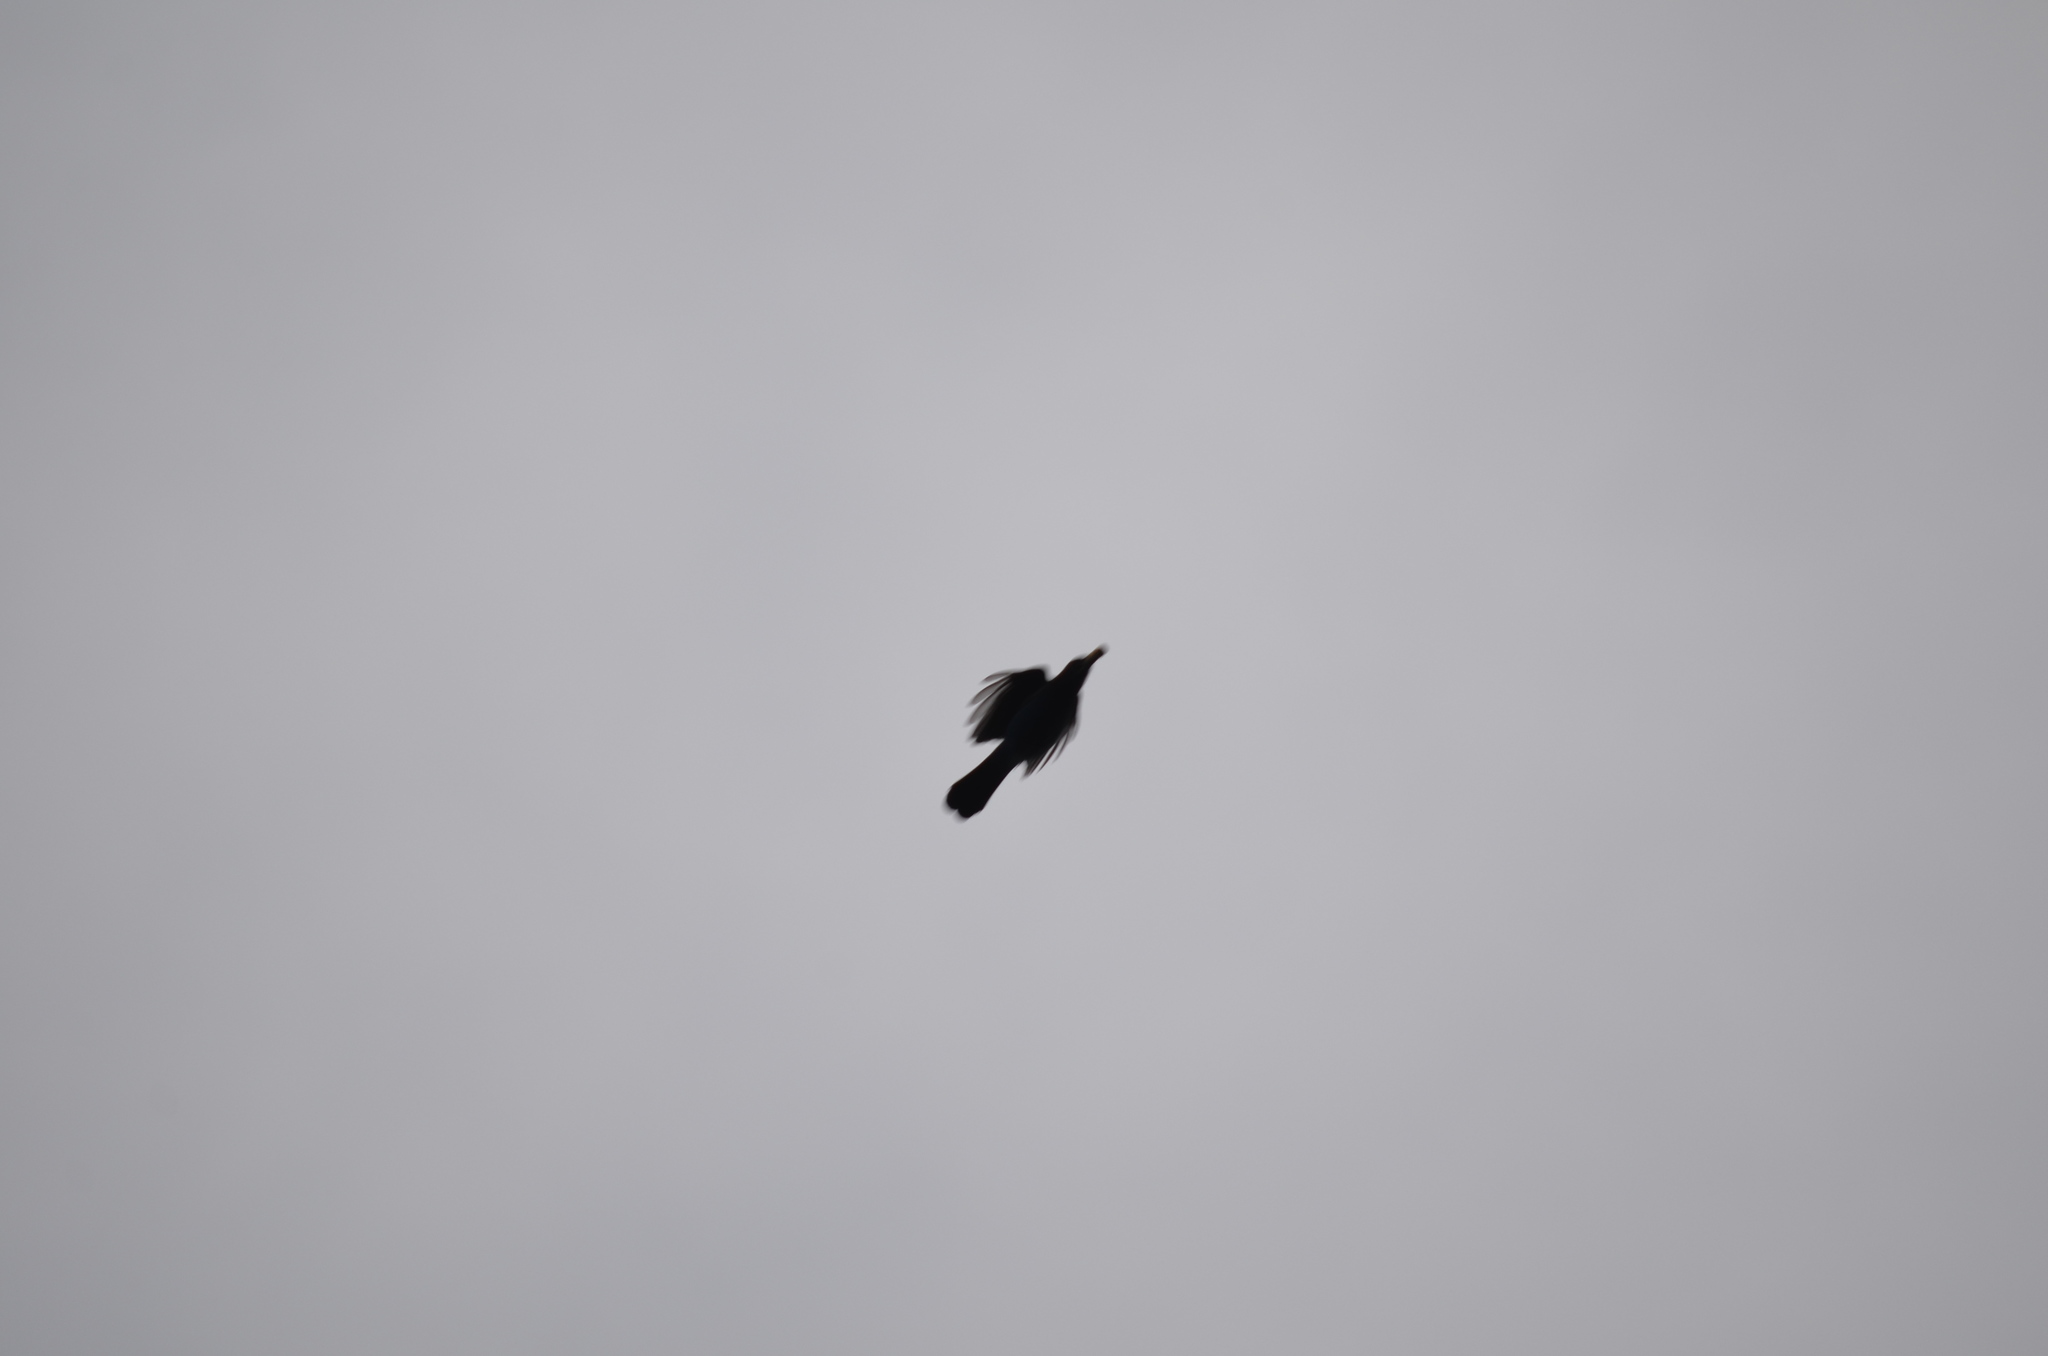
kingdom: Animalia
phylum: Chordata
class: Aves
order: Passeriformes
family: Corvidae
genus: Cyanocitta
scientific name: Cyanocitta stelleri
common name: Steller's jay
